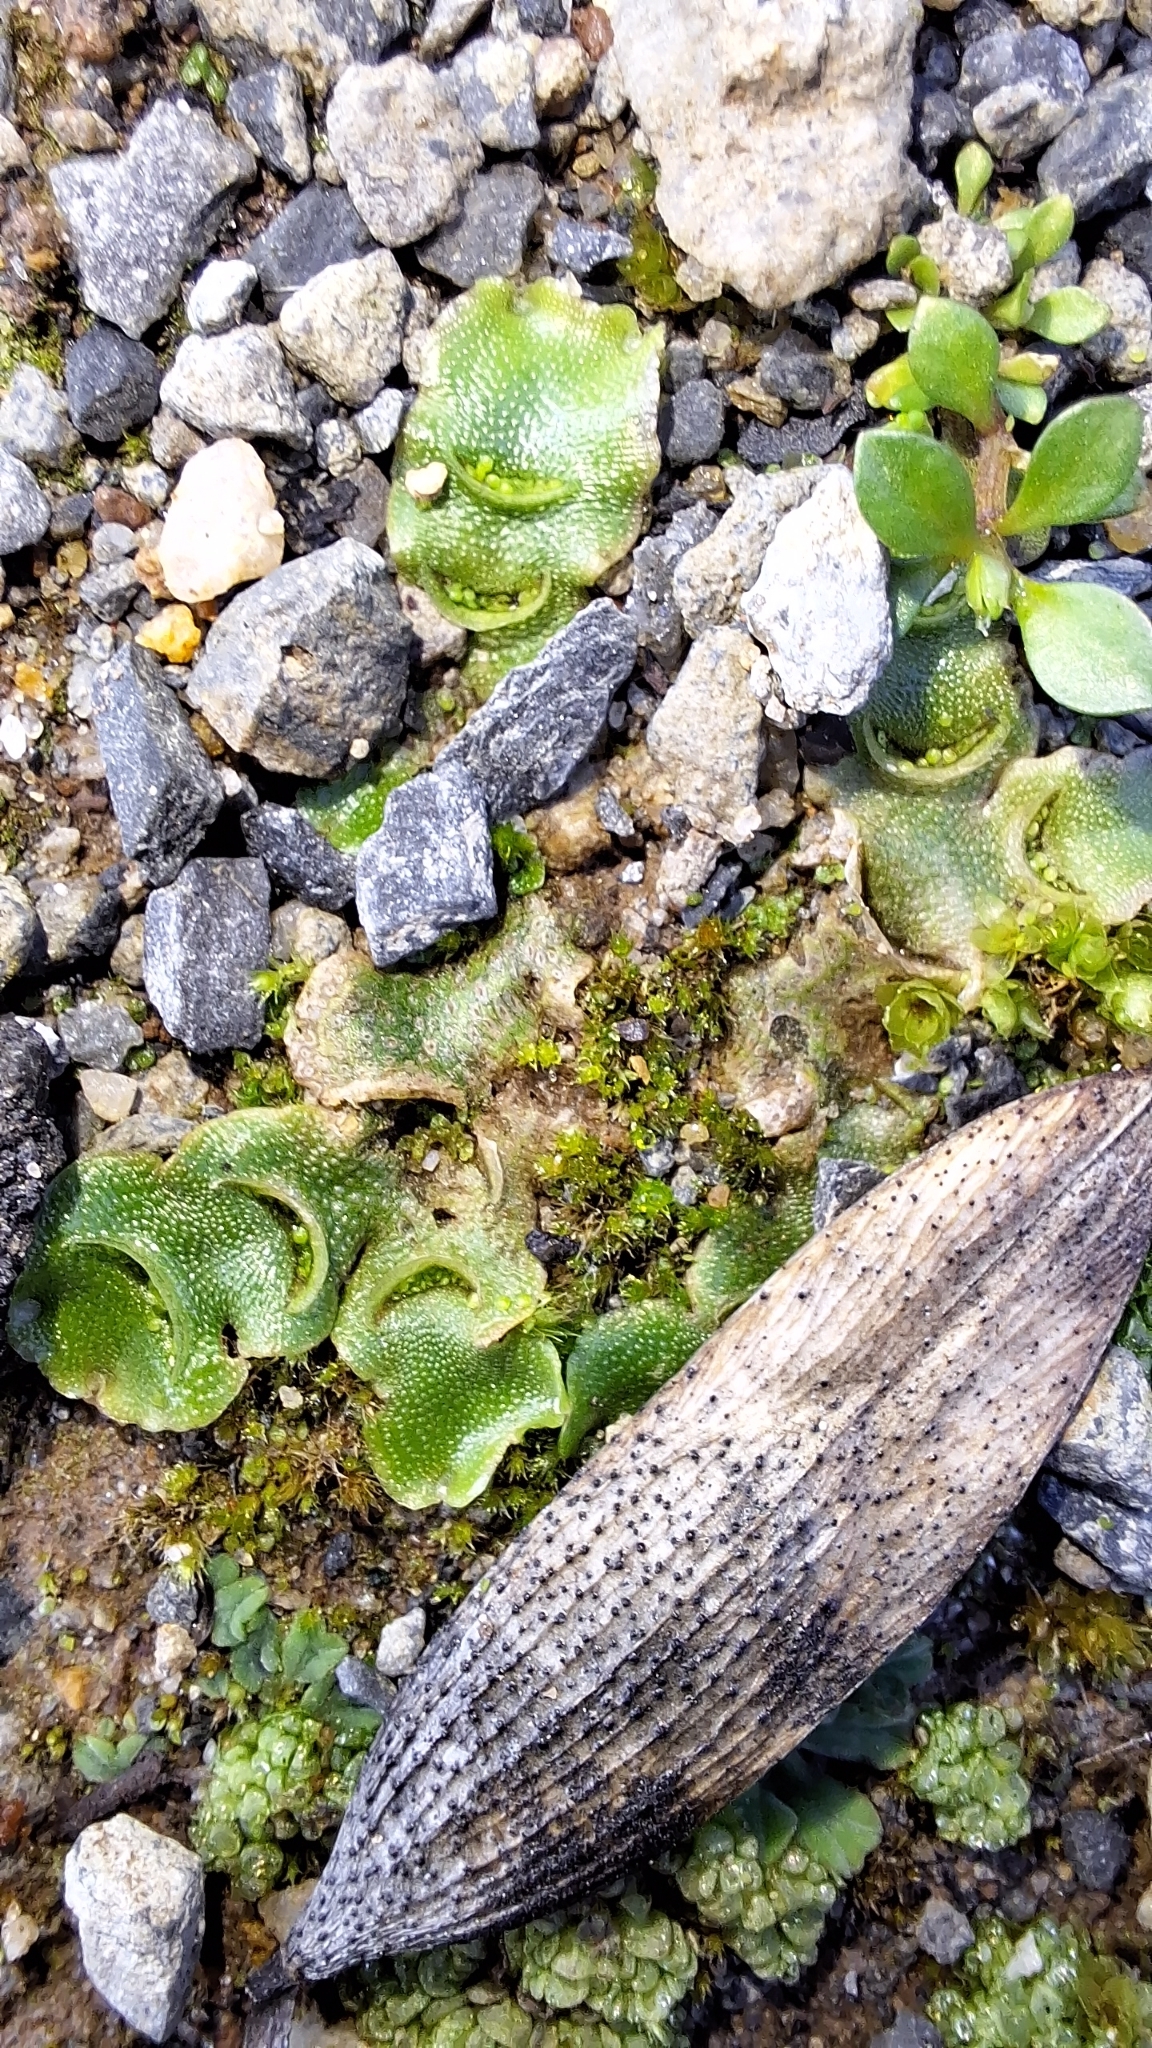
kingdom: Plantae
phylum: Marchantiophyta
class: Marchantiopsida
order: Lunulariales
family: Lunulariaceae
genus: Lunularia
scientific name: Lunularia cruciata
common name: Crescent-cup liverwort
